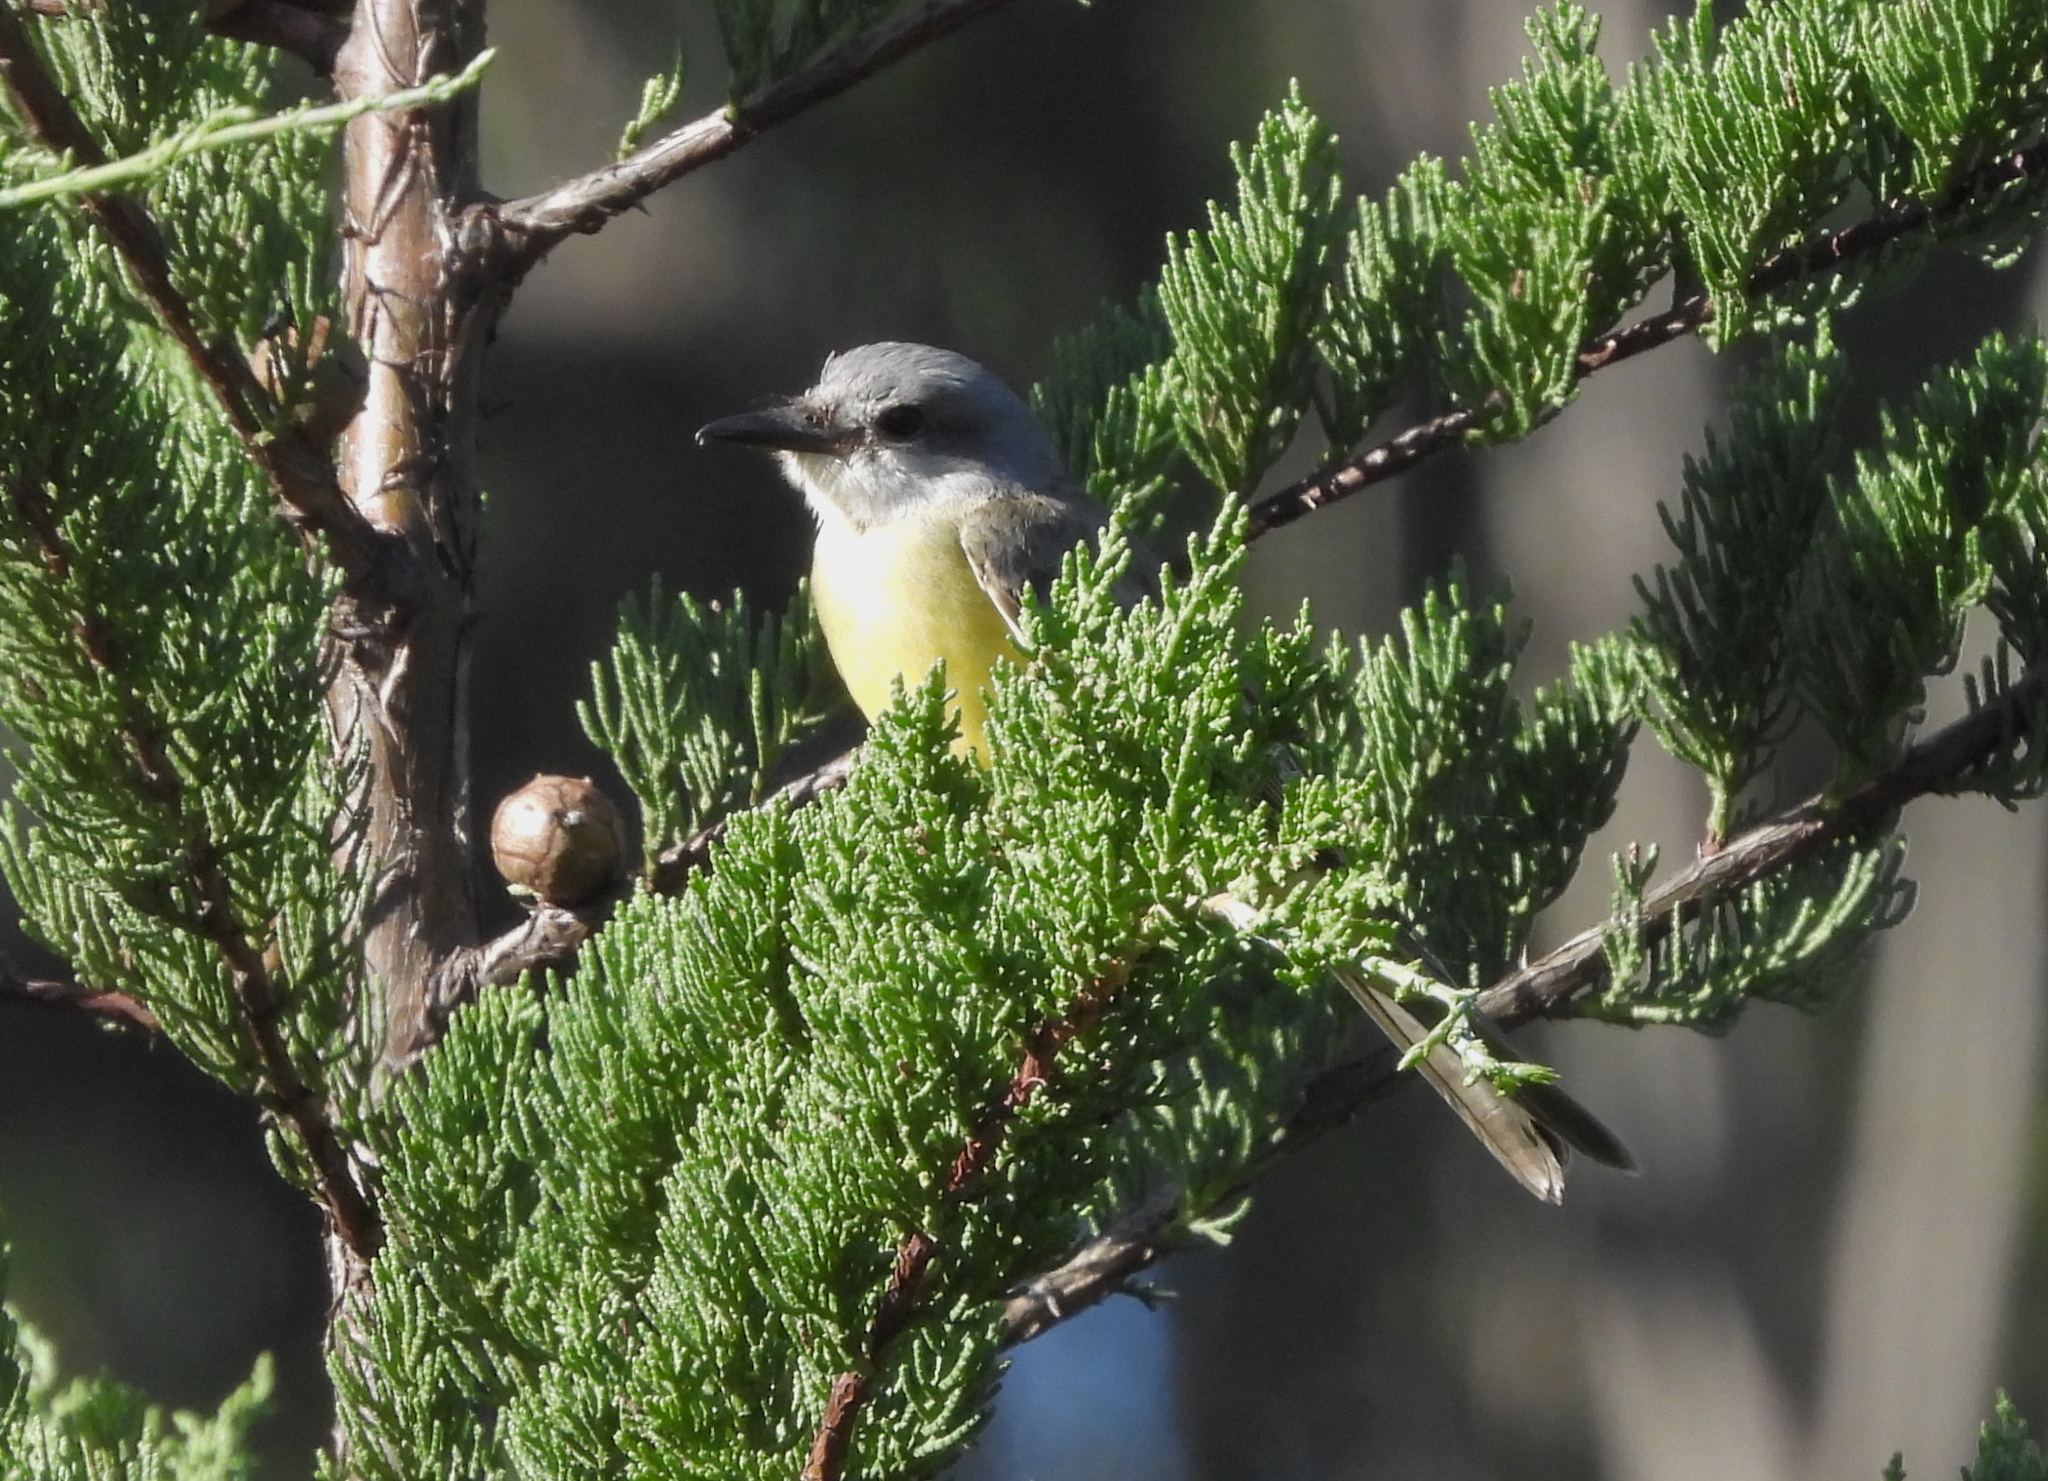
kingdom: Animalia
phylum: Chordata
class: Aves
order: Passeriformes
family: Tyrannidae
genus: Tyrannus
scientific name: Tyrannus melancholicus
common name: Tropical kingbird
